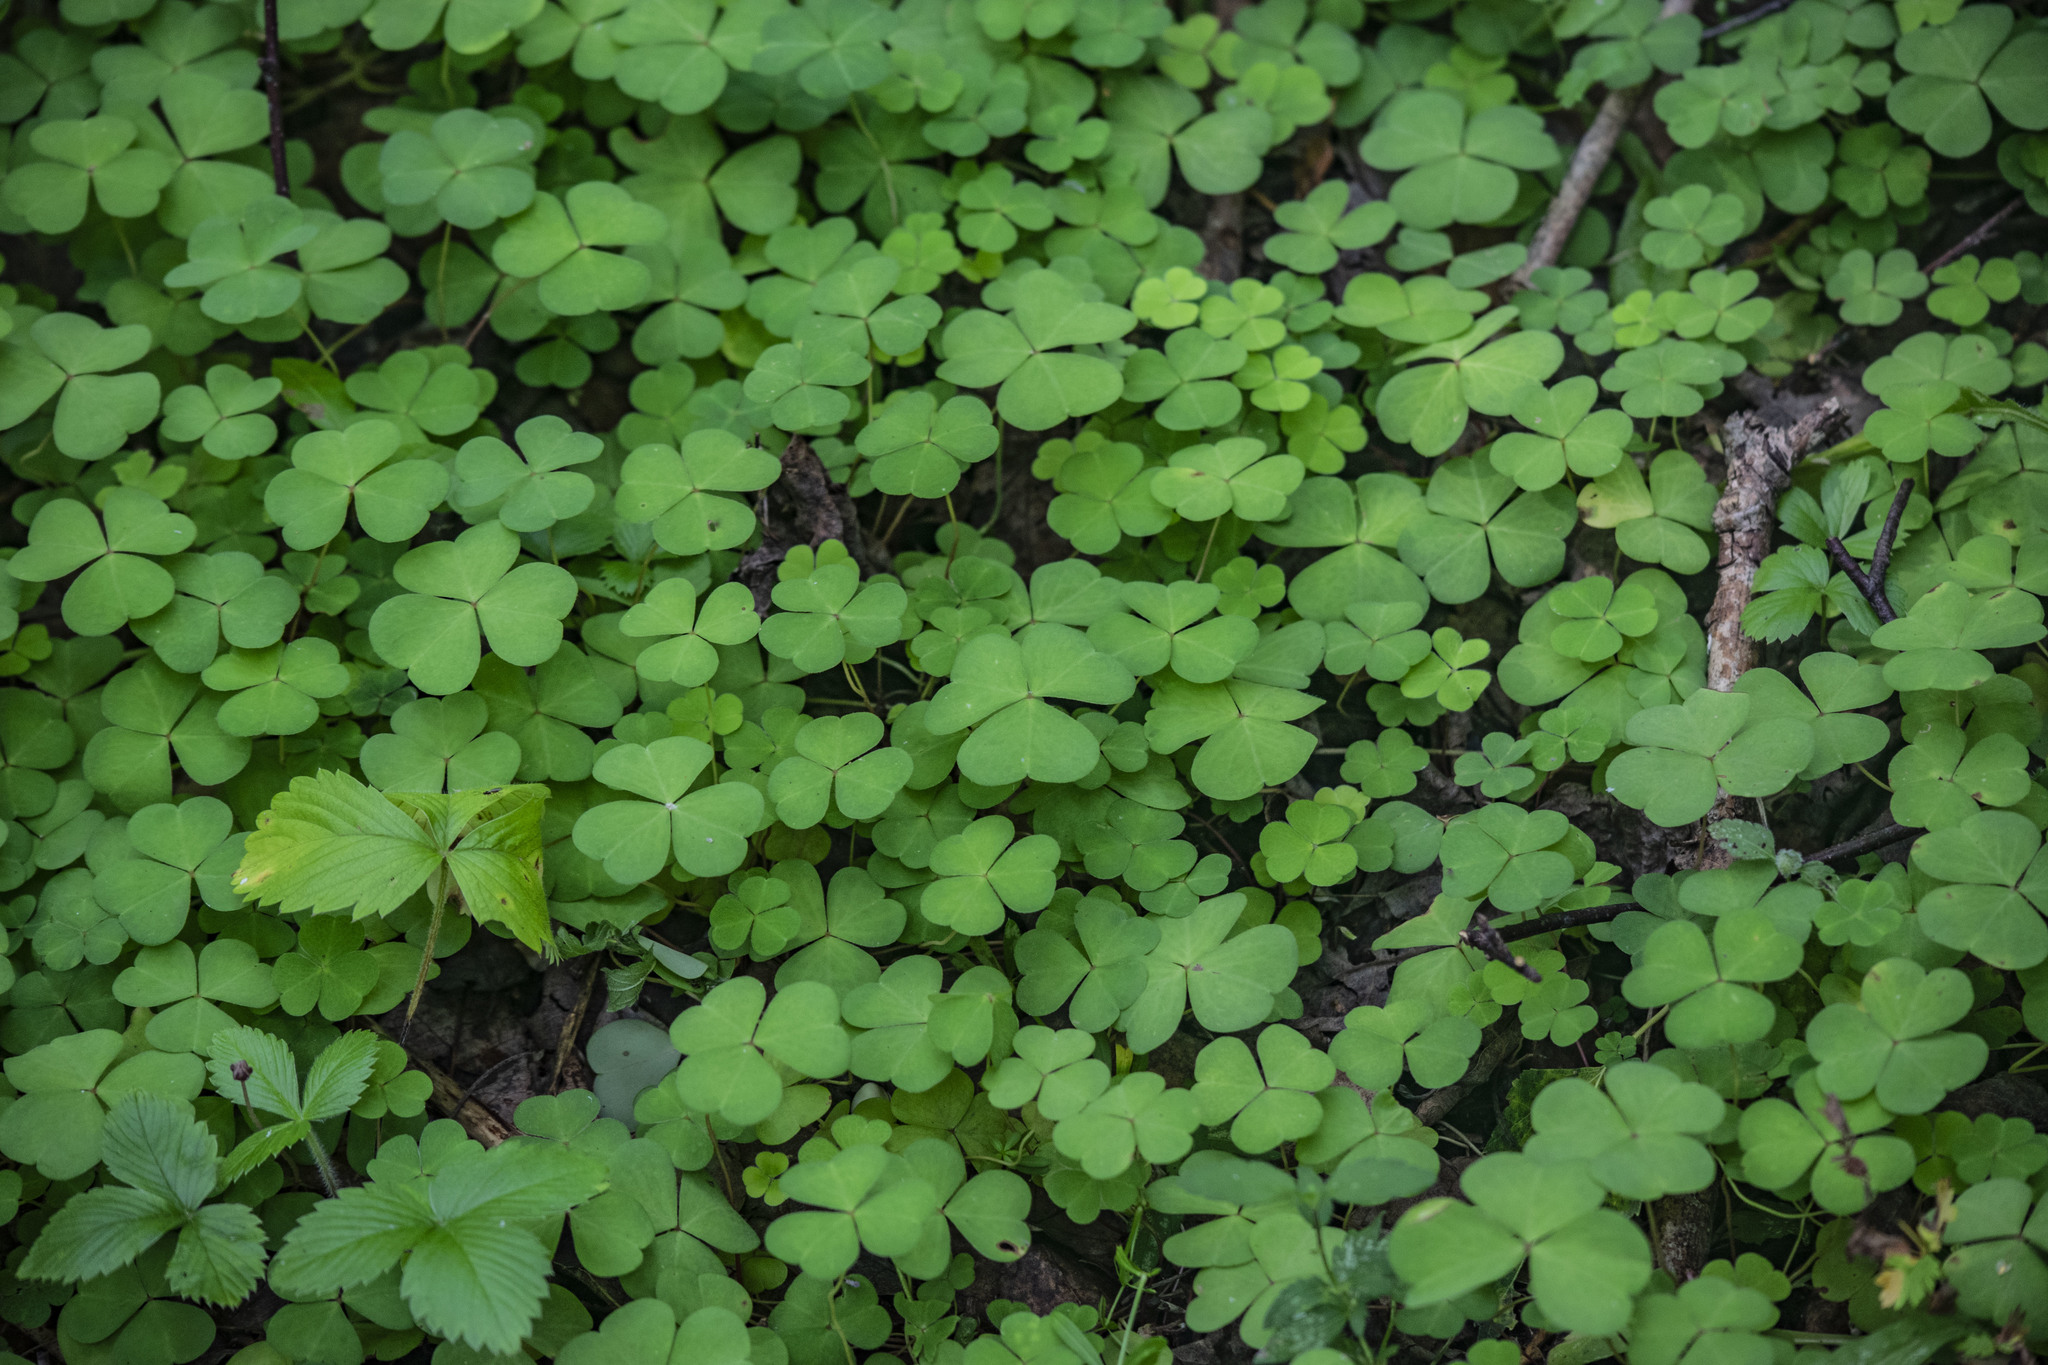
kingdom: Plantae
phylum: Tracheophyta
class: Magnoliopsida
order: Oxalidales
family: Oxalidaceae
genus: Oxalis
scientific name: Oxalis acetosella
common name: Wood-sorrel
